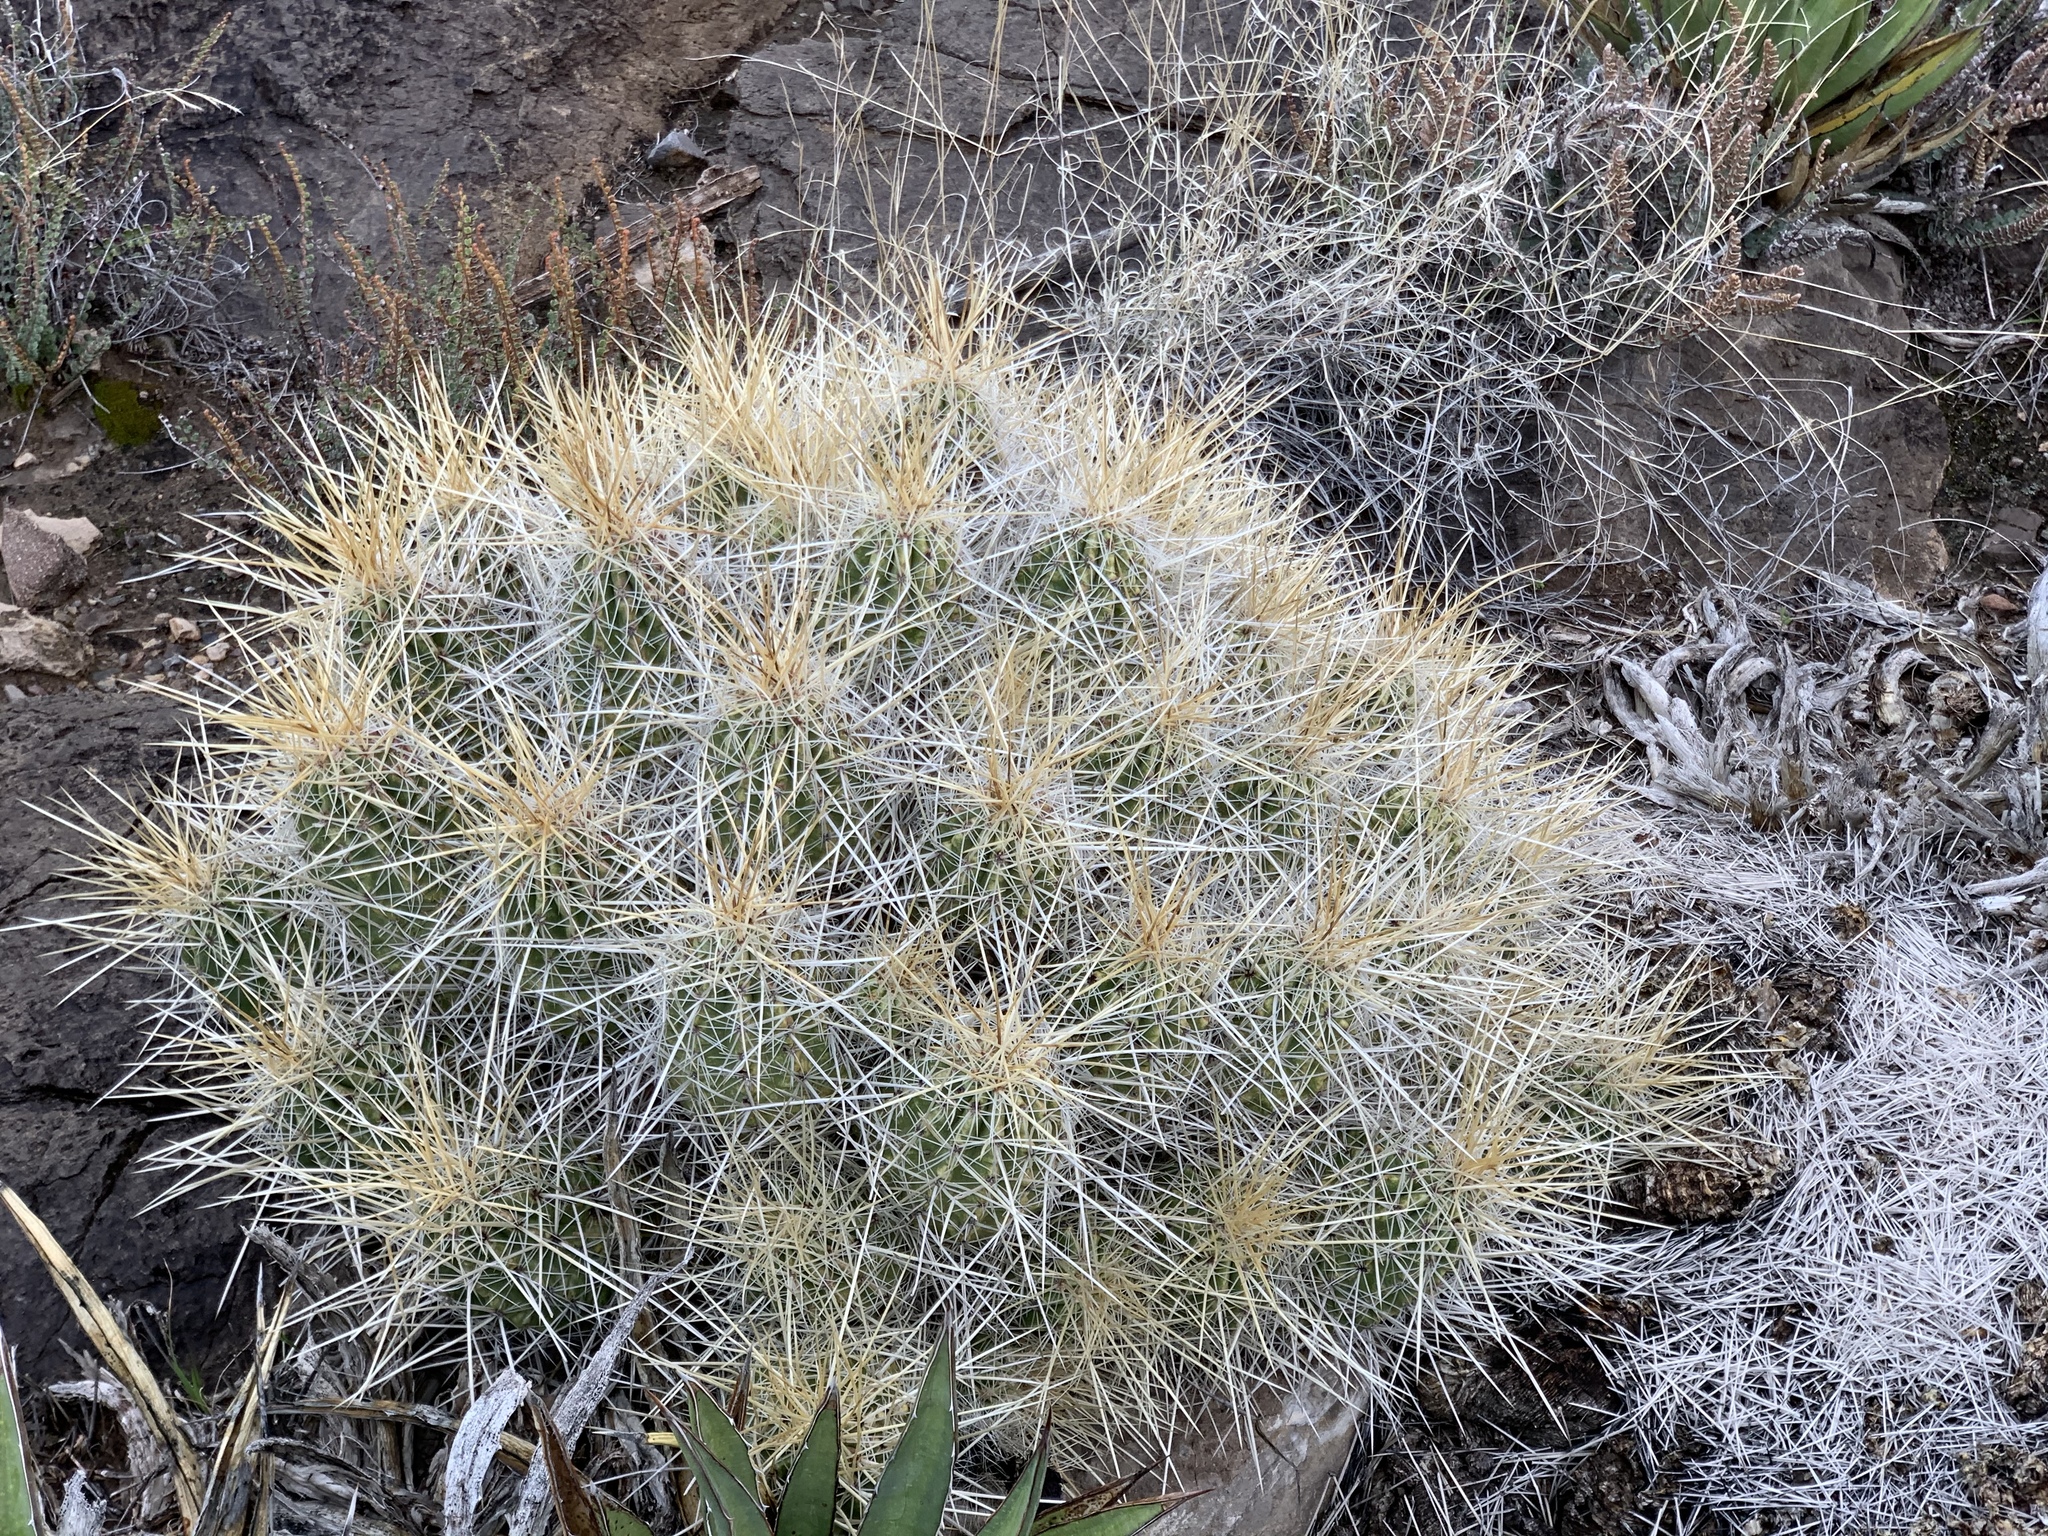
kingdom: Plantae
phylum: Tracheophyta
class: Magnoliopsida
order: Caryophyllales
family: Cactaceae
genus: Echinocereus
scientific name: Echinocereus stramineus
